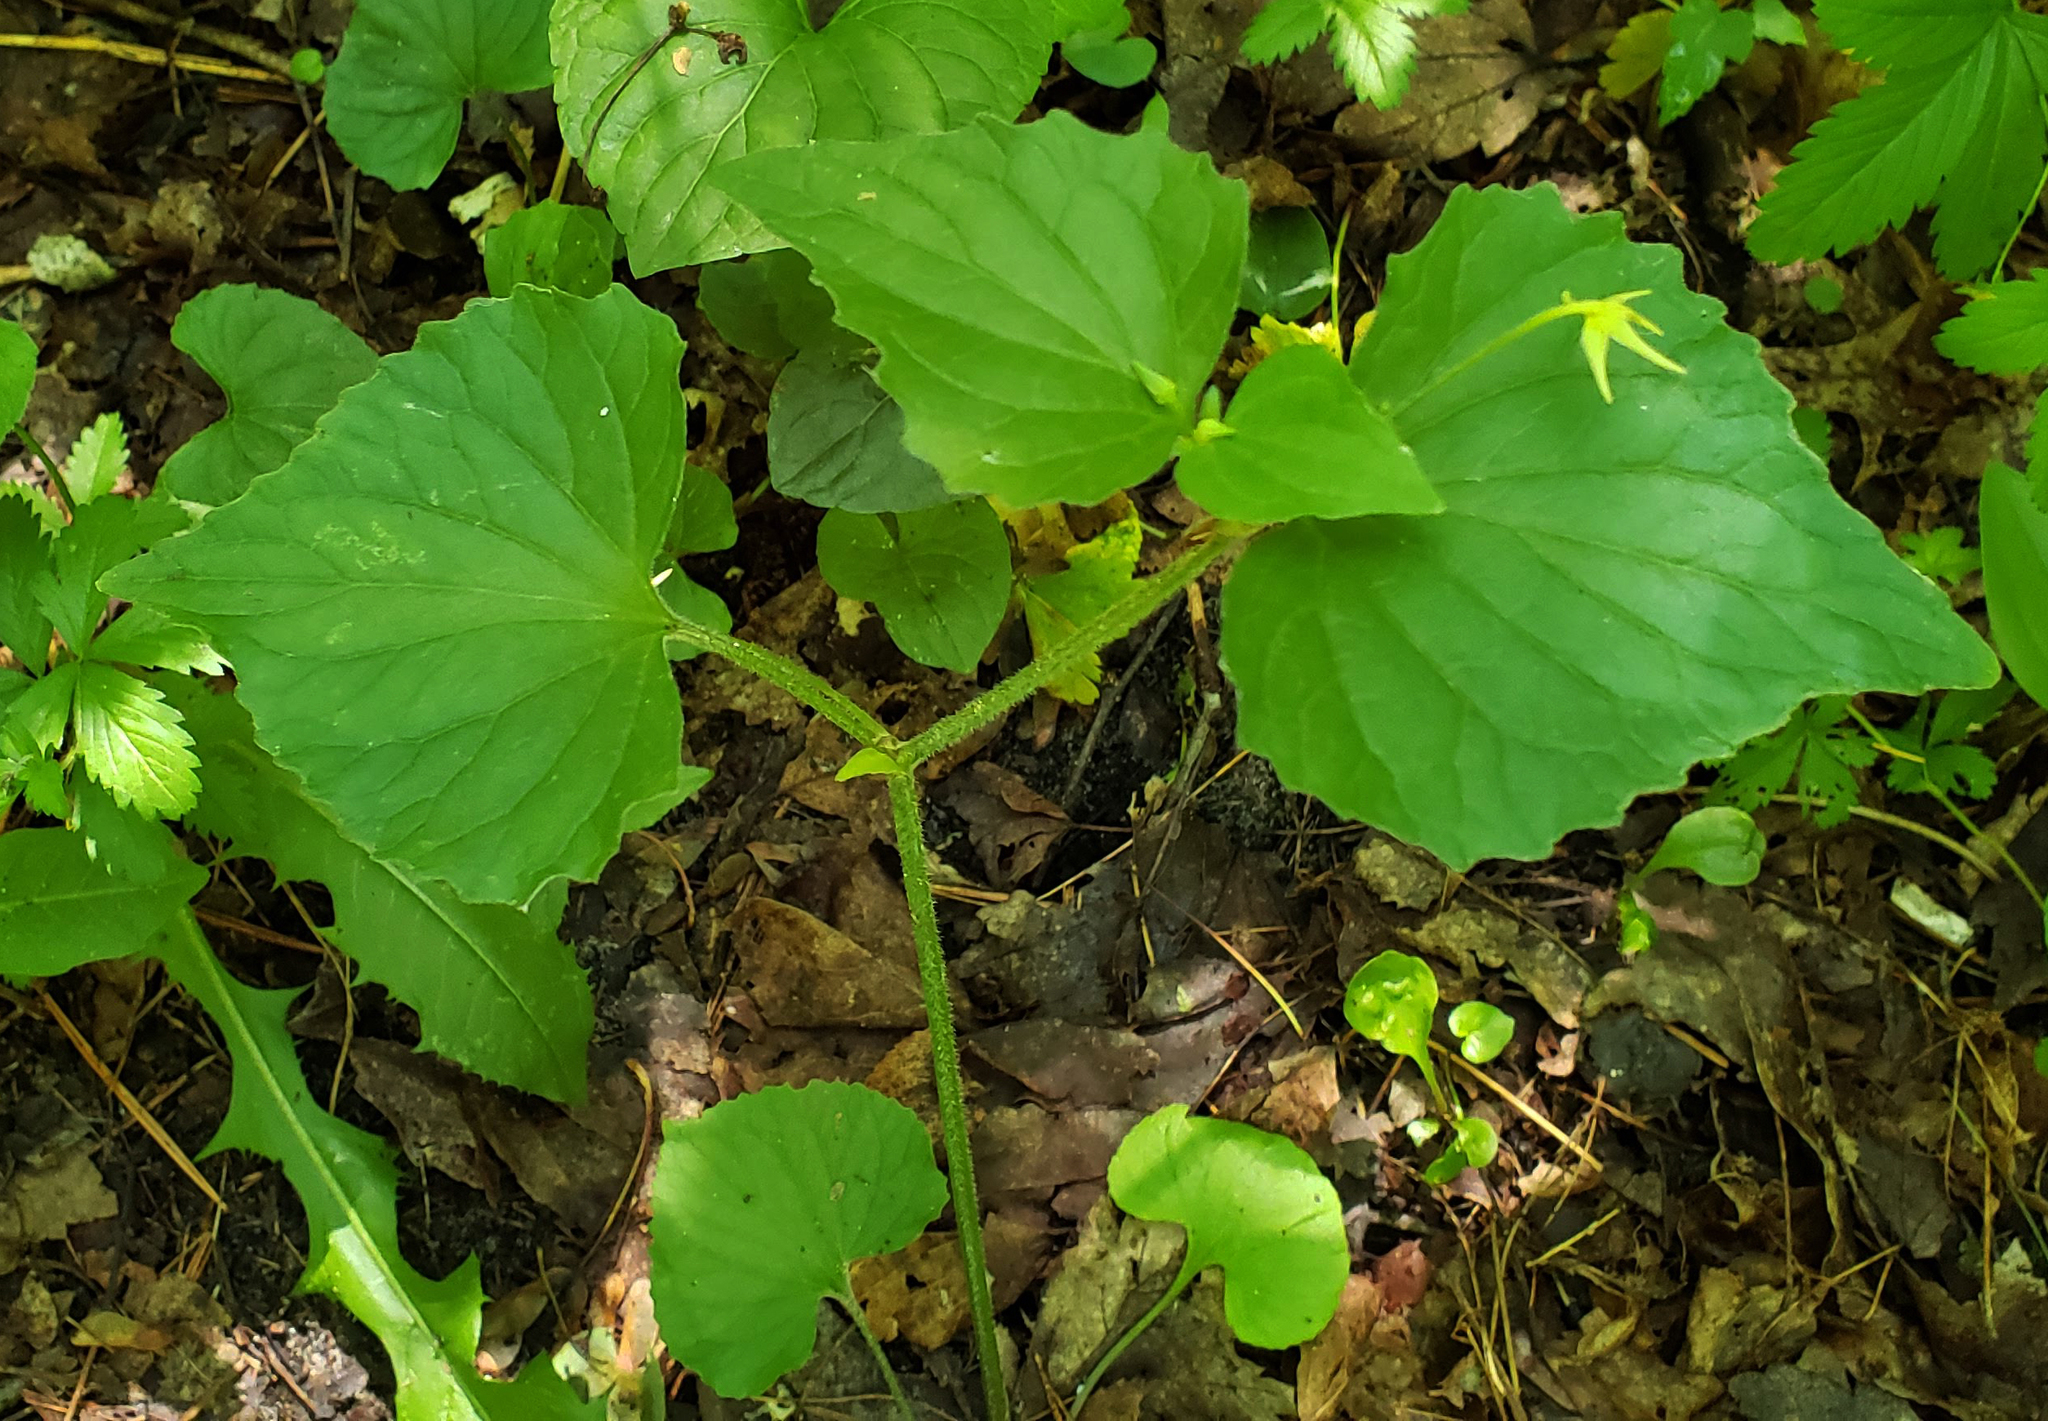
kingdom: Plantae
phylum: Tracheophyta
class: Magnoliopsida
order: Malpighiales
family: Violaceae
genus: Viola
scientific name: Viola eriocarpa
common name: Smooth yellow violet
